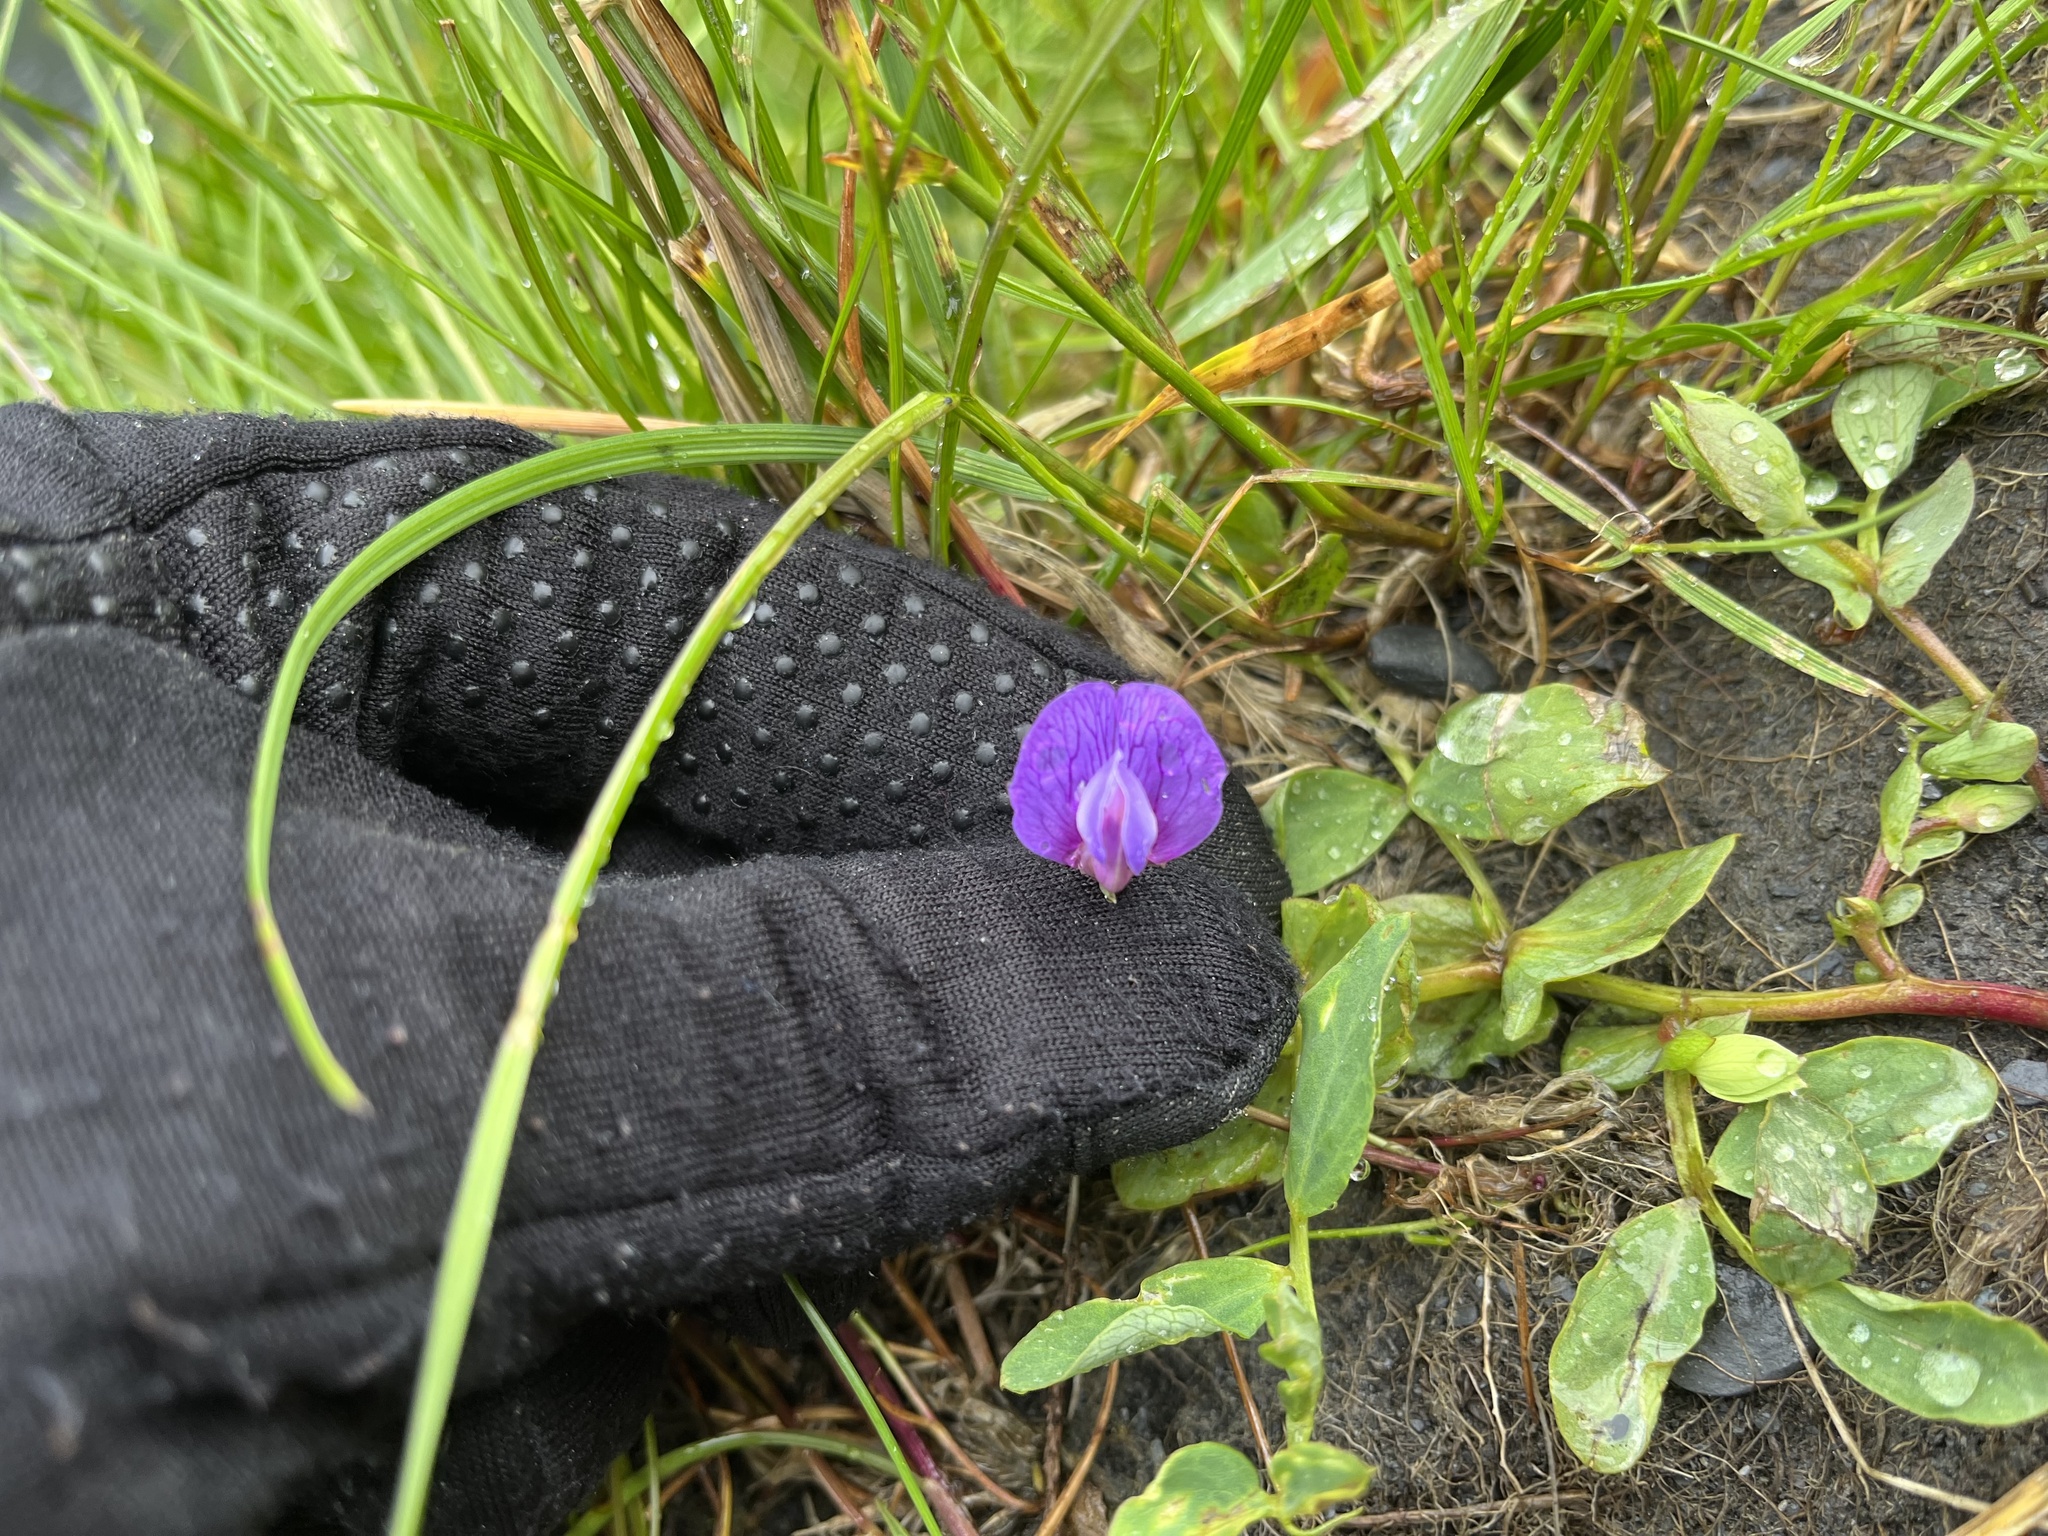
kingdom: Plantae
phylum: Tracheophyta
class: Magnoliopsida
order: Fabales
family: Fabaceae
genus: Lathyrus
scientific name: Lathyrus japonicus
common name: Sea pea
